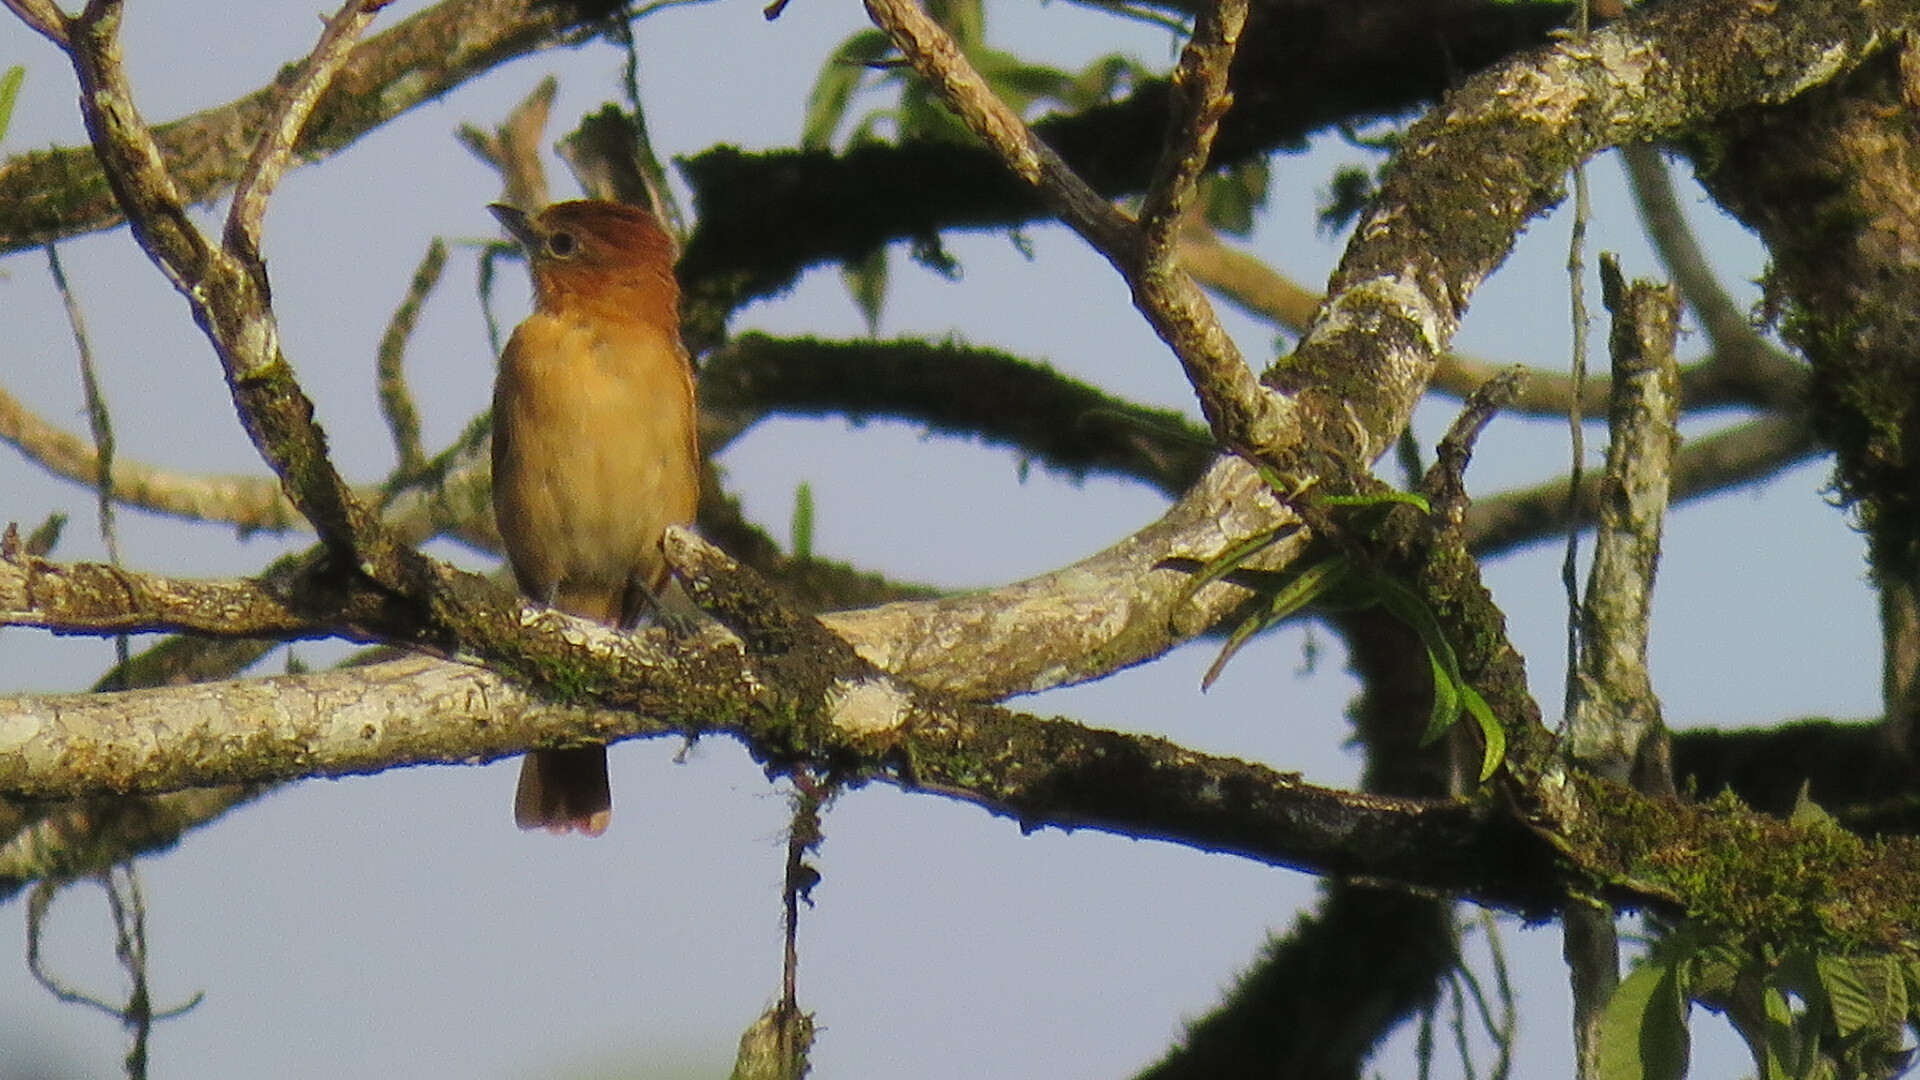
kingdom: Animalia
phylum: Chordata
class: Aves
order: Passeriformes
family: Cotingidae
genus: Pachyramphus
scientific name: Pachyramphus cinnamomeus
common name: Cinnamon becard
